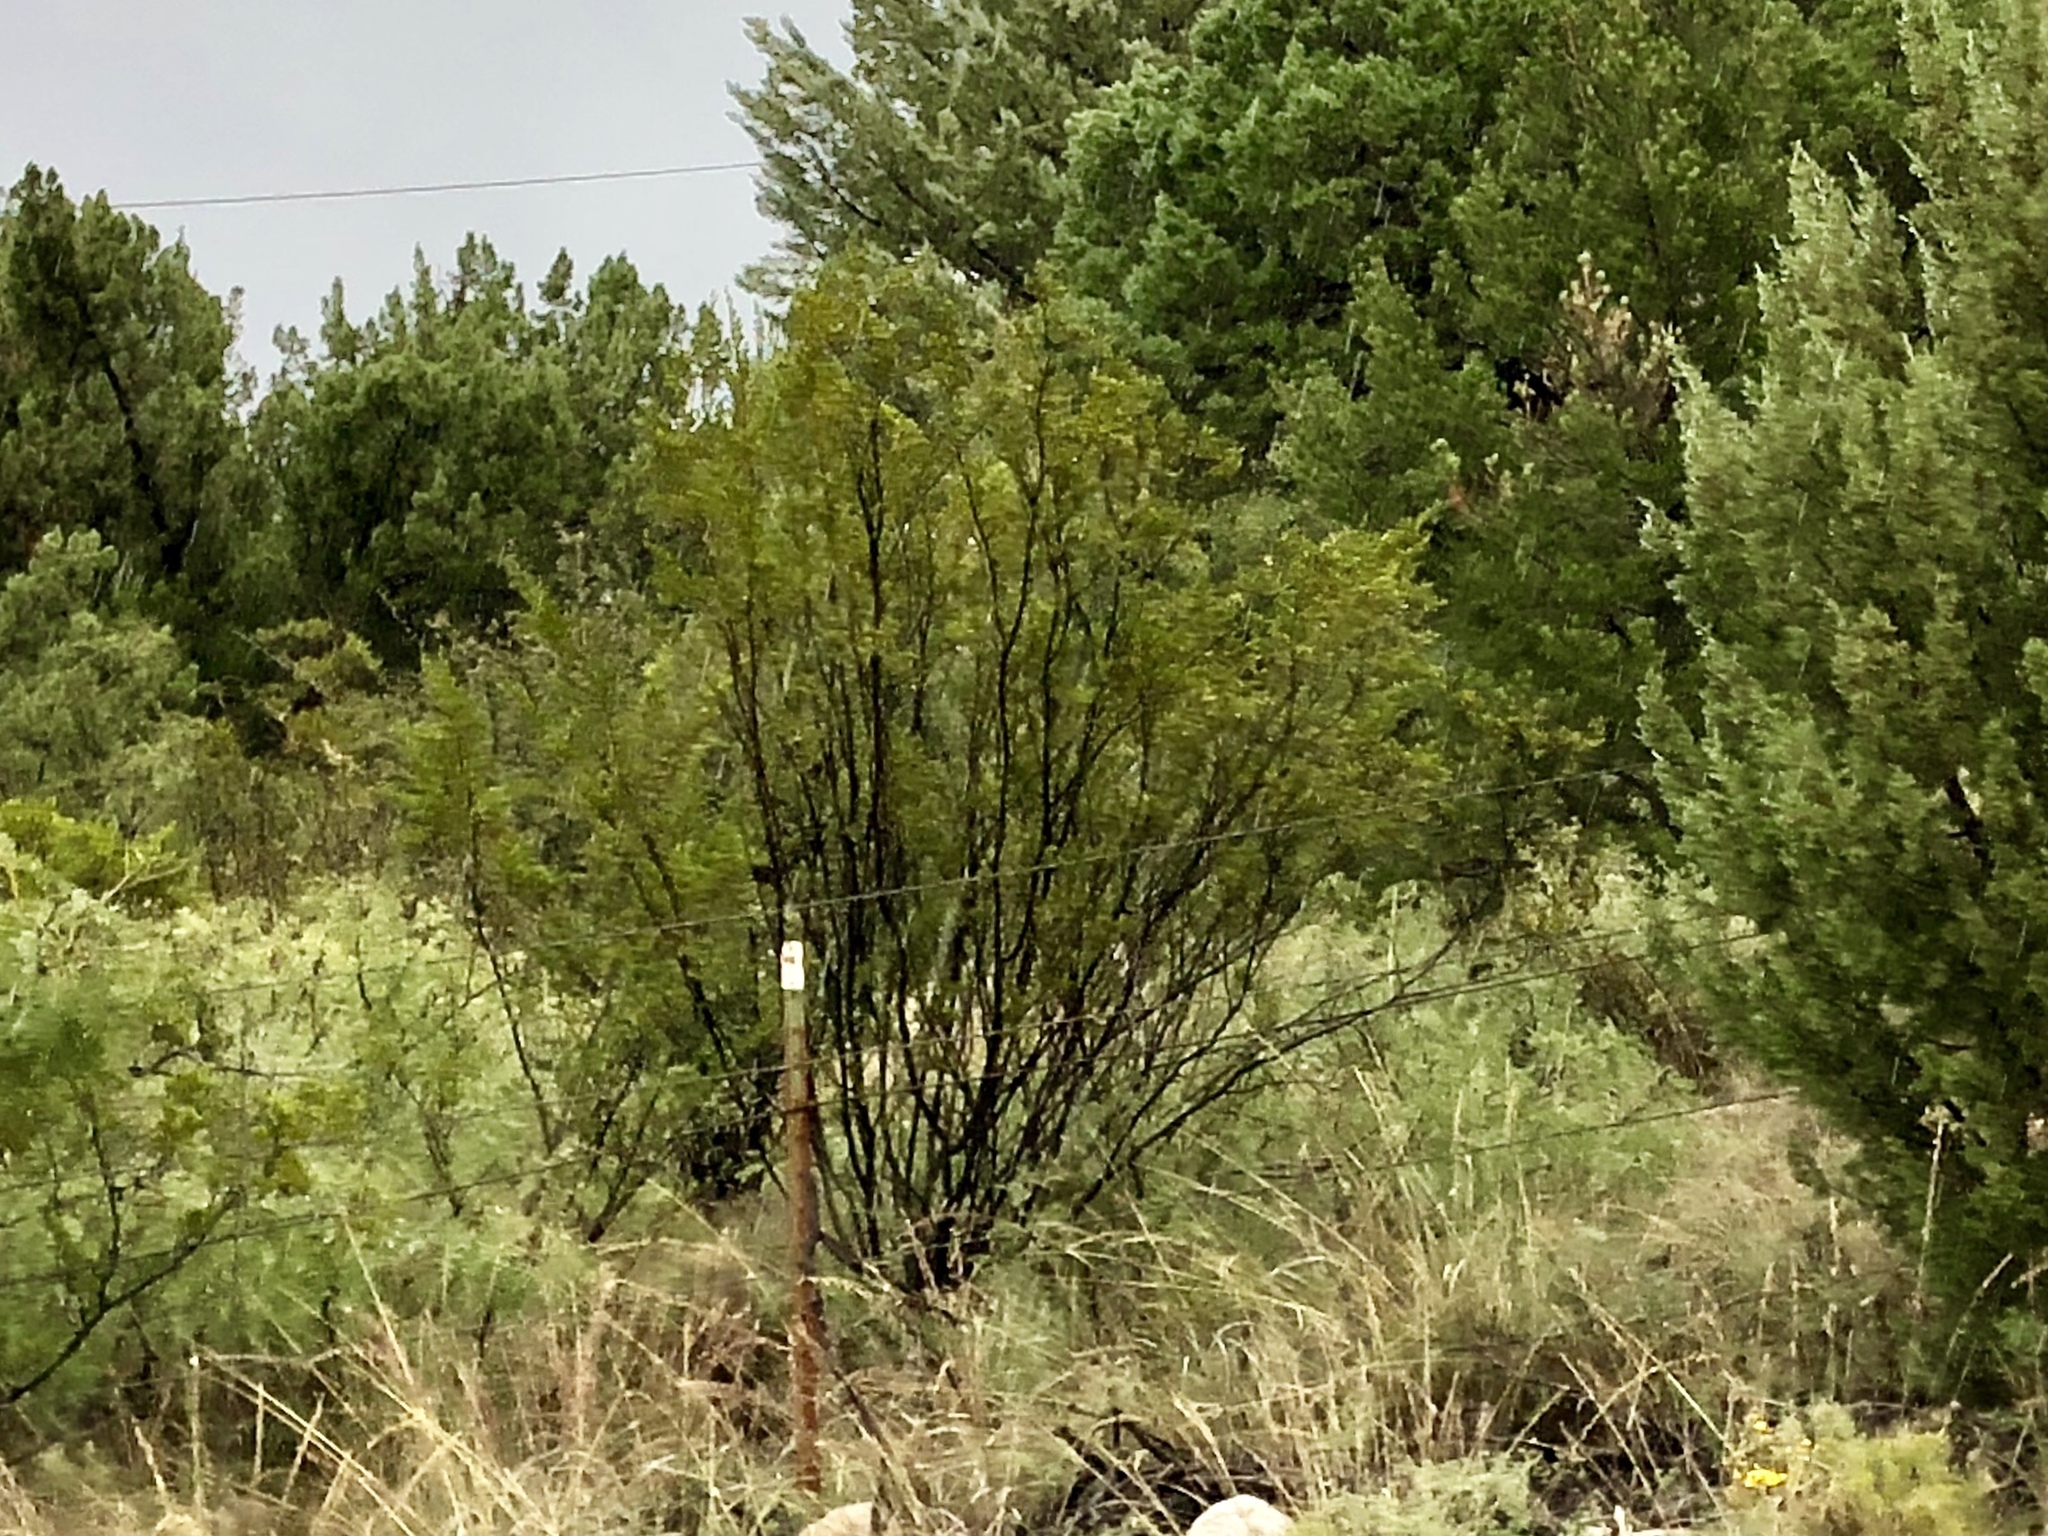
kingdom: Plantae
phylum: Tracheophyta
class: Magnoliopsida
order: Zygophyllales
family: Zygophyllaceae
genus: Larrea
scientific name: Larrea tridentata
